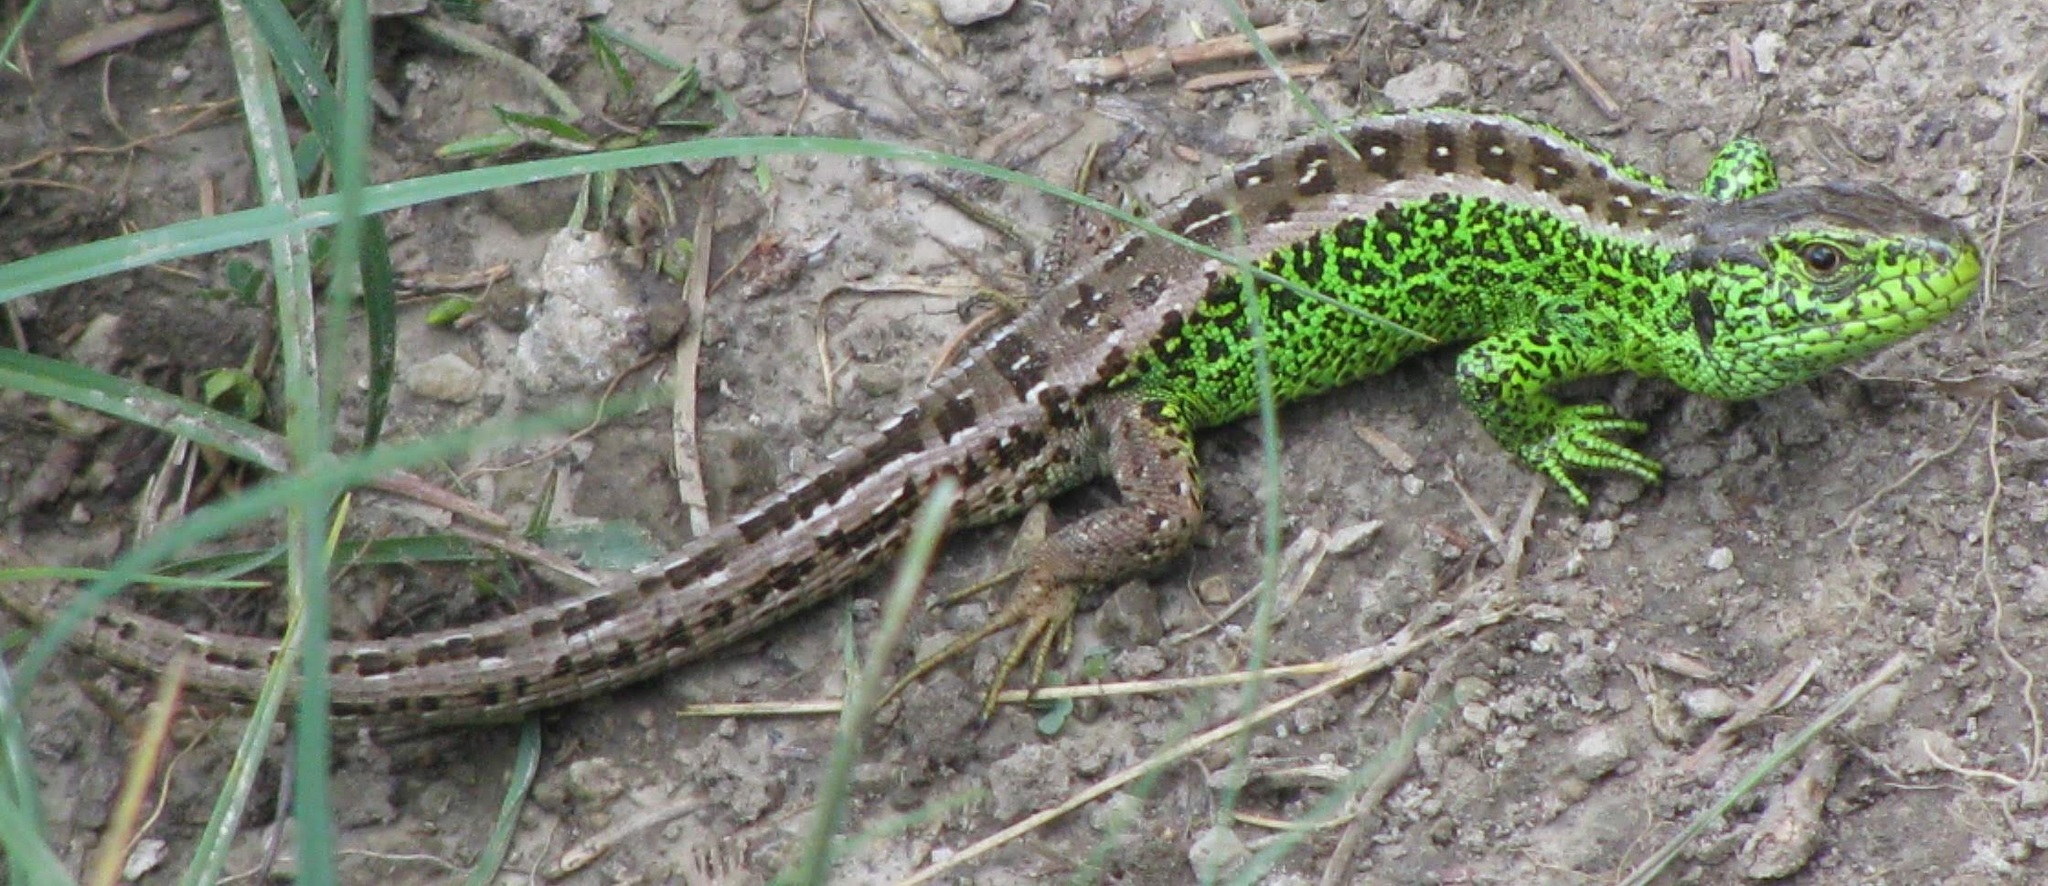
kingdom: Animalia
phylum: Chordata
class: Squamata
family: Lacertidae
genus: Lacerta
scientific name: Lacerta agilis
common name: Sand lizard
